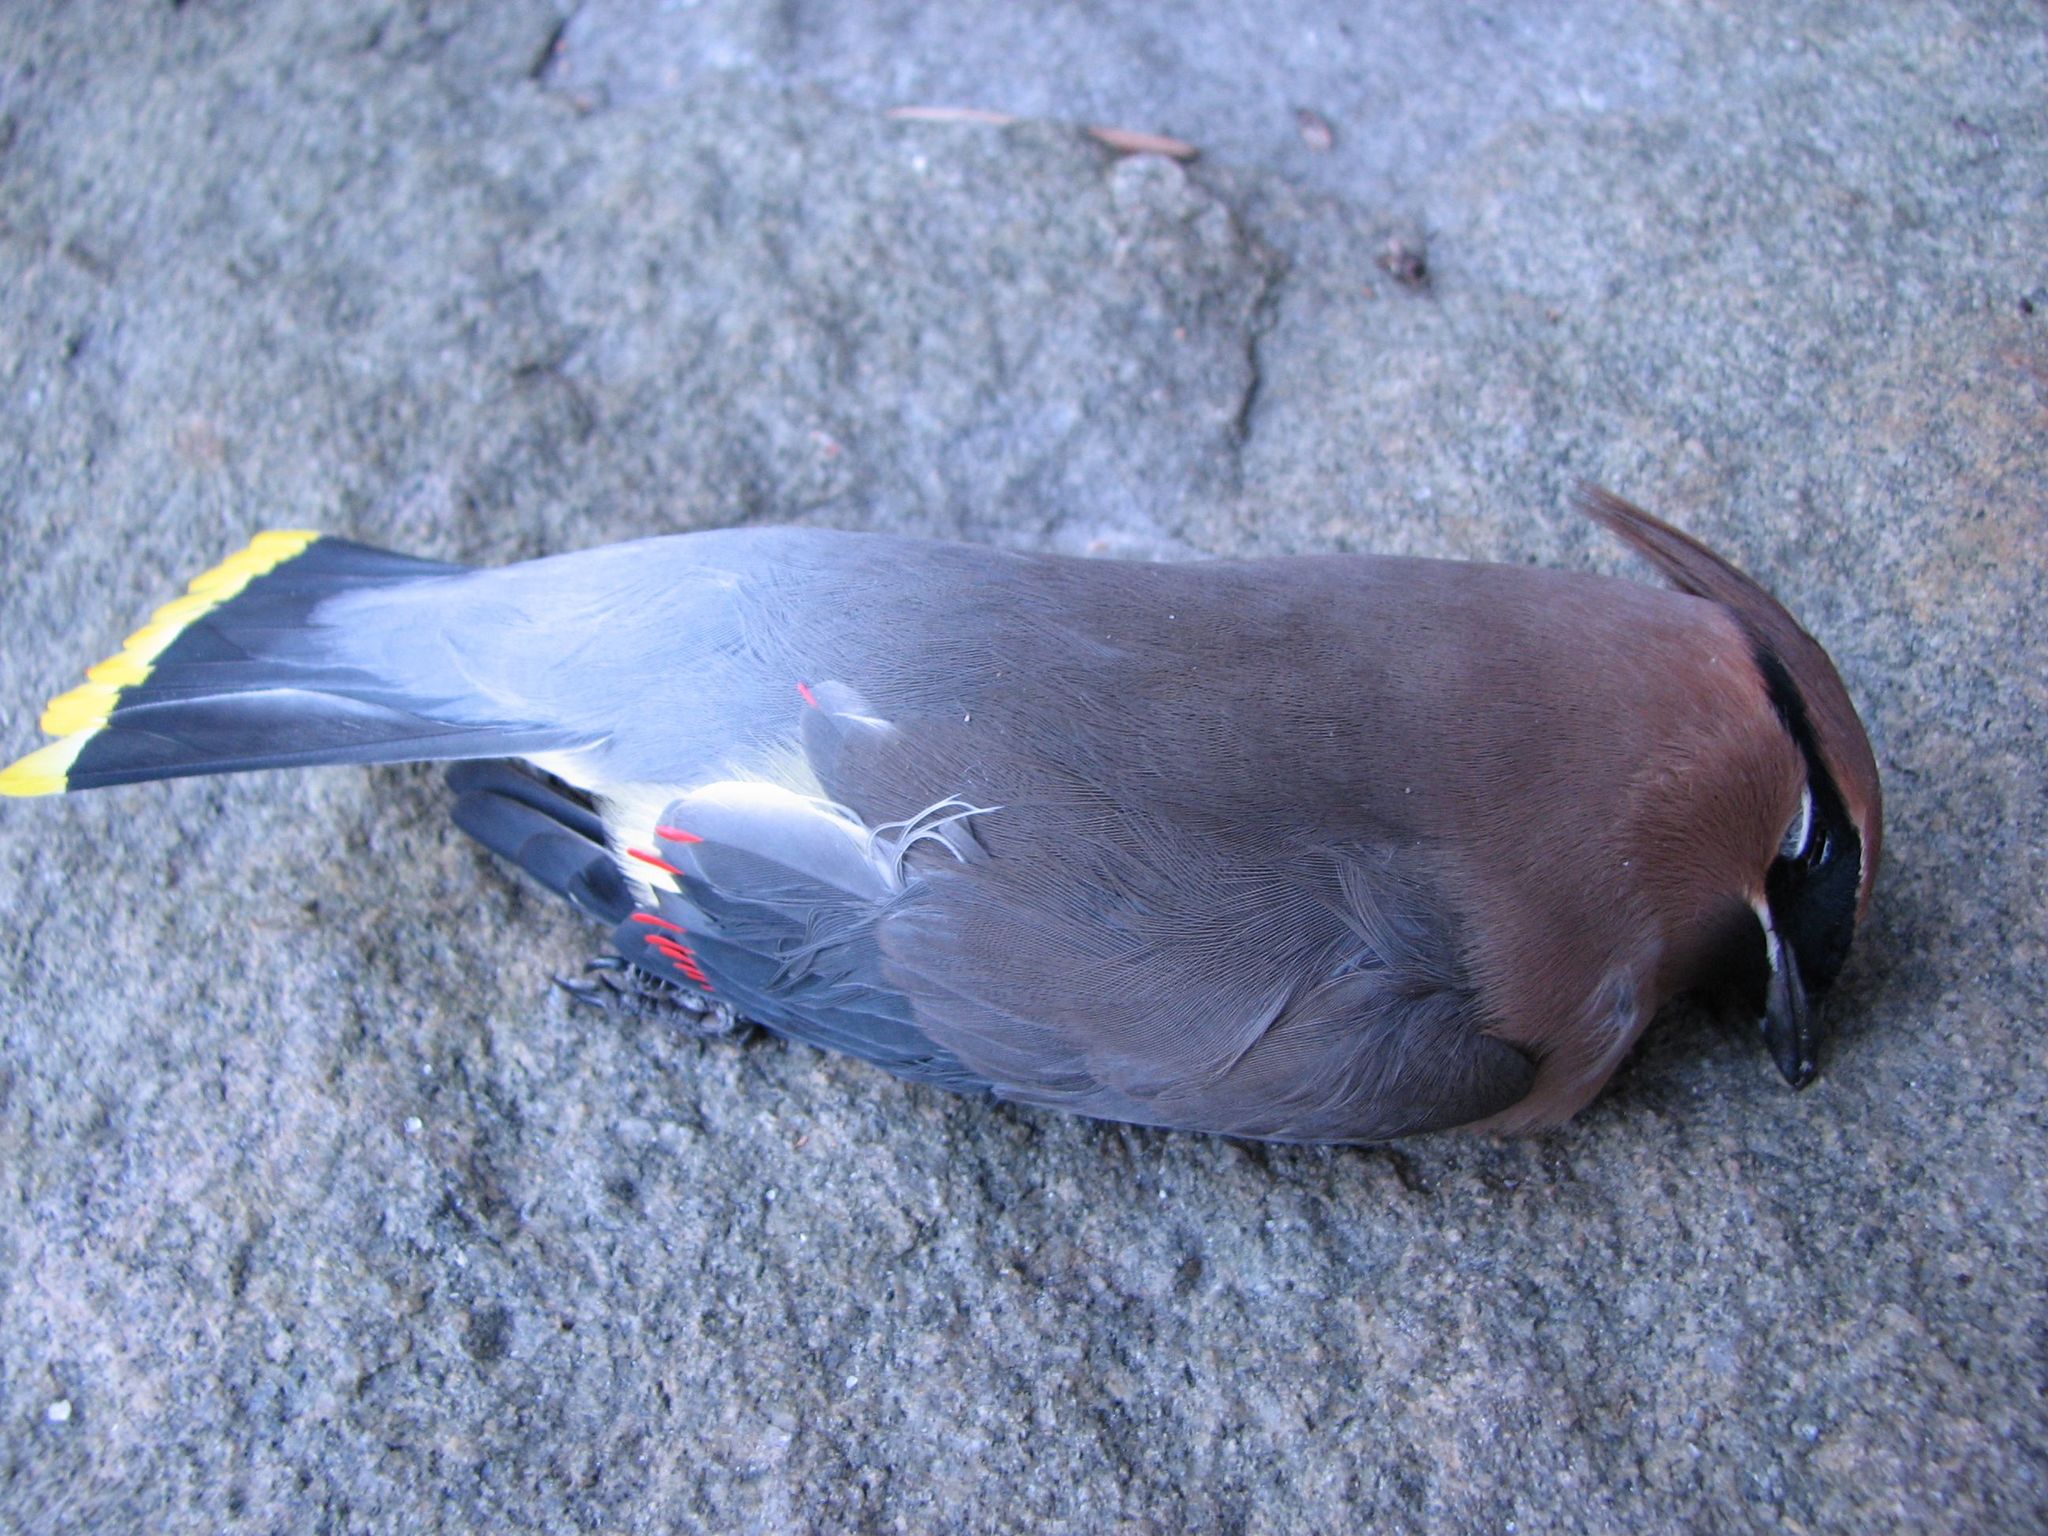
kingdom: Animalia
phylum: Chordata
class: Aves
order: Passeriformes
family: Bombycillidae
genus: Bombycilla
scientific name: Bombycilla cedrorum
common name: Cedar waxwing
